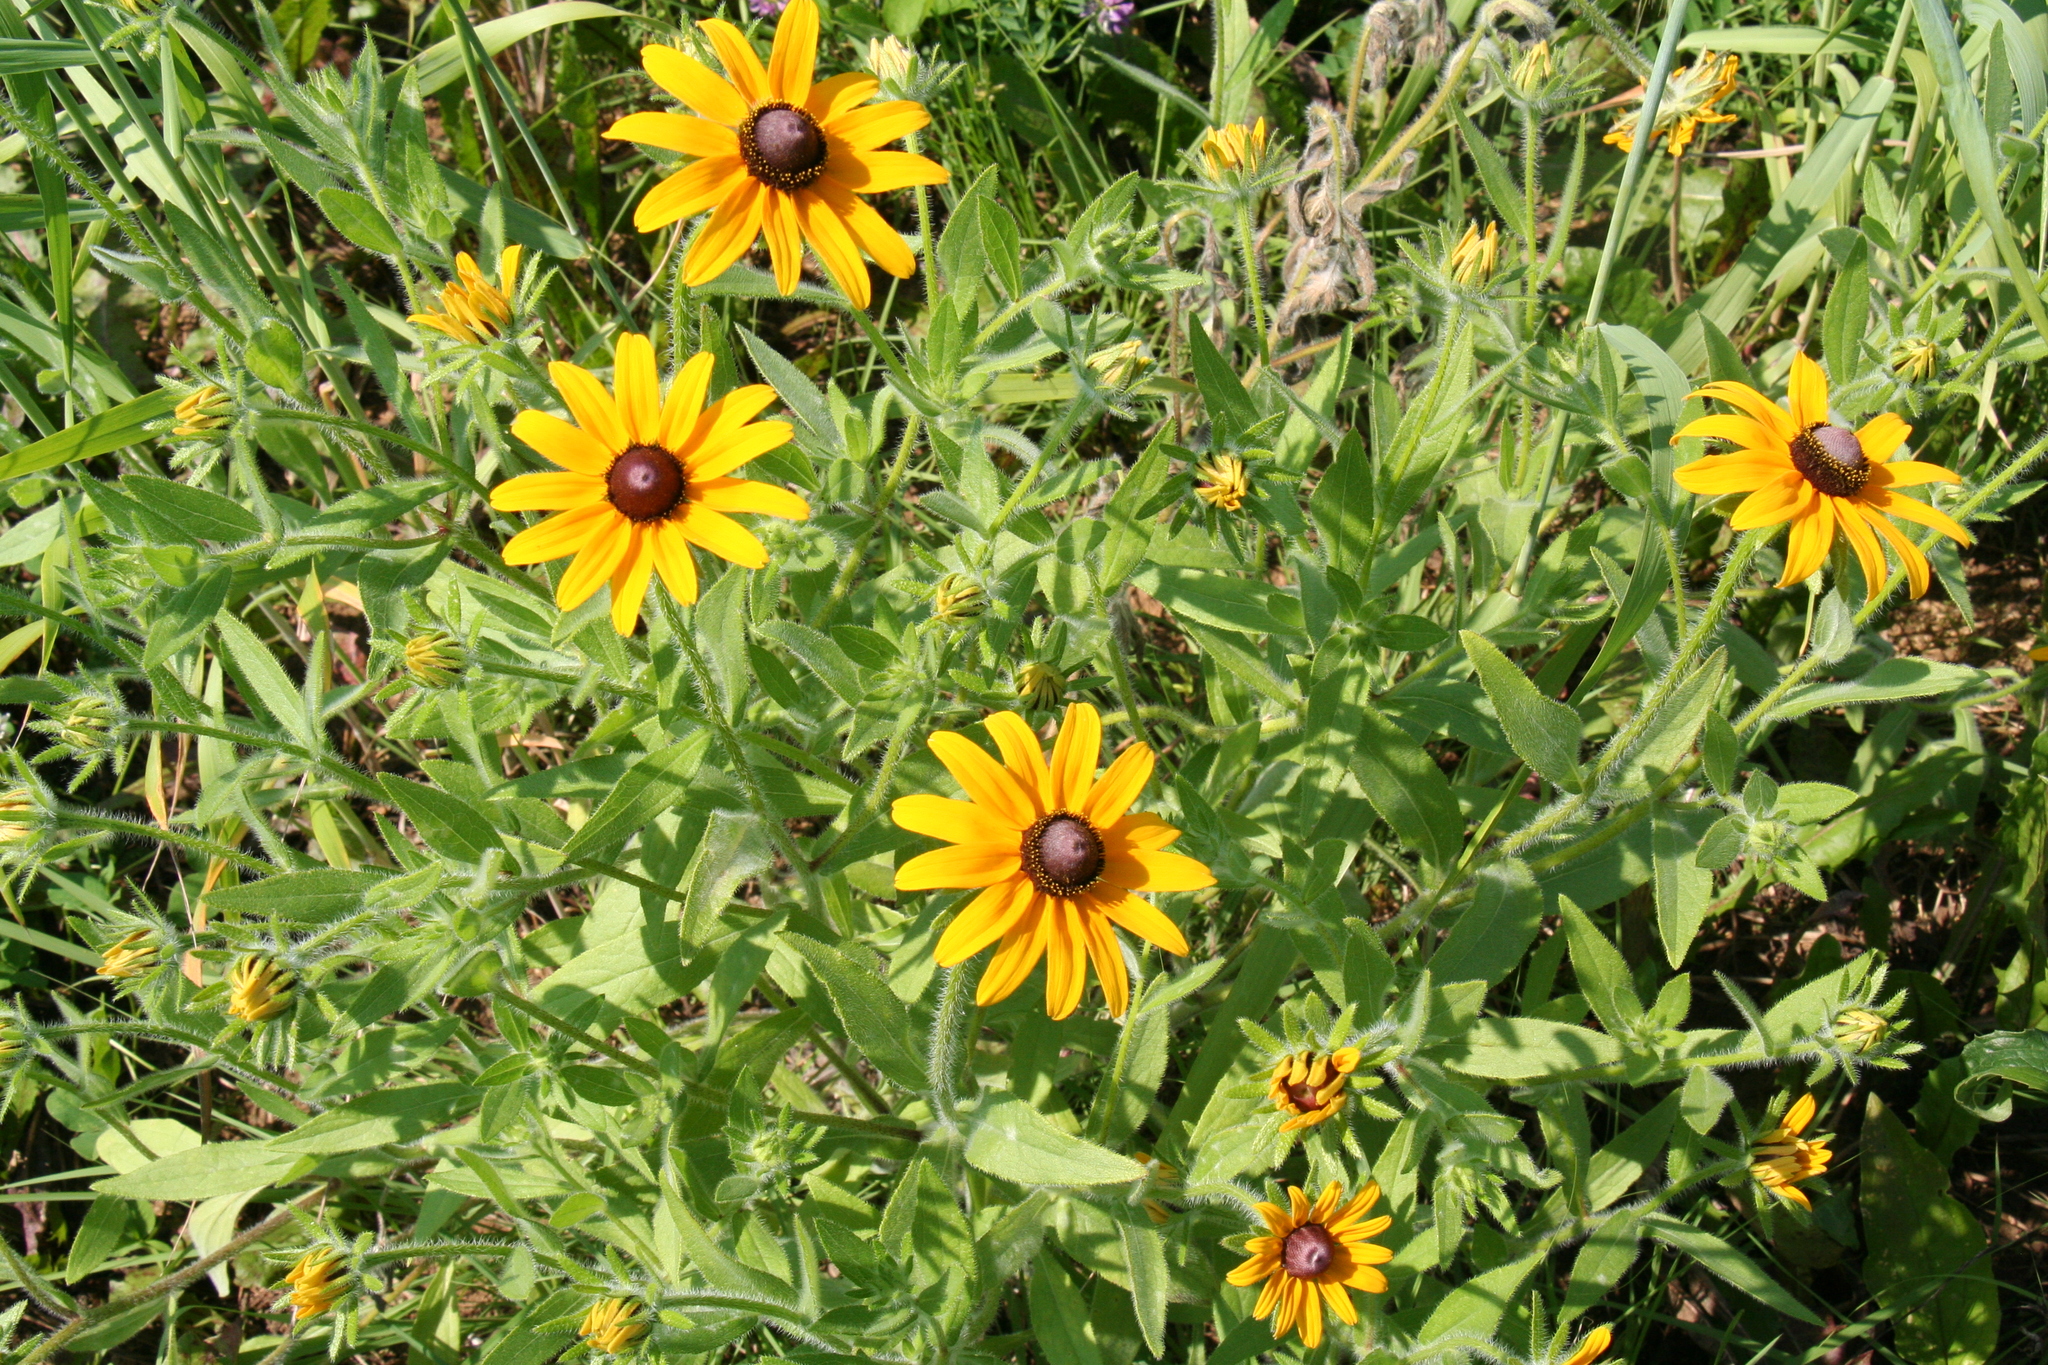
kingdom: Plantae
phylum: Tracheophyta
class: Magnoliopsida
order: Asterales
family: Asteraceae
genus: Rudbeckia
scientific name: Rudbeckia hirta
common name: Black-eyed-susan
